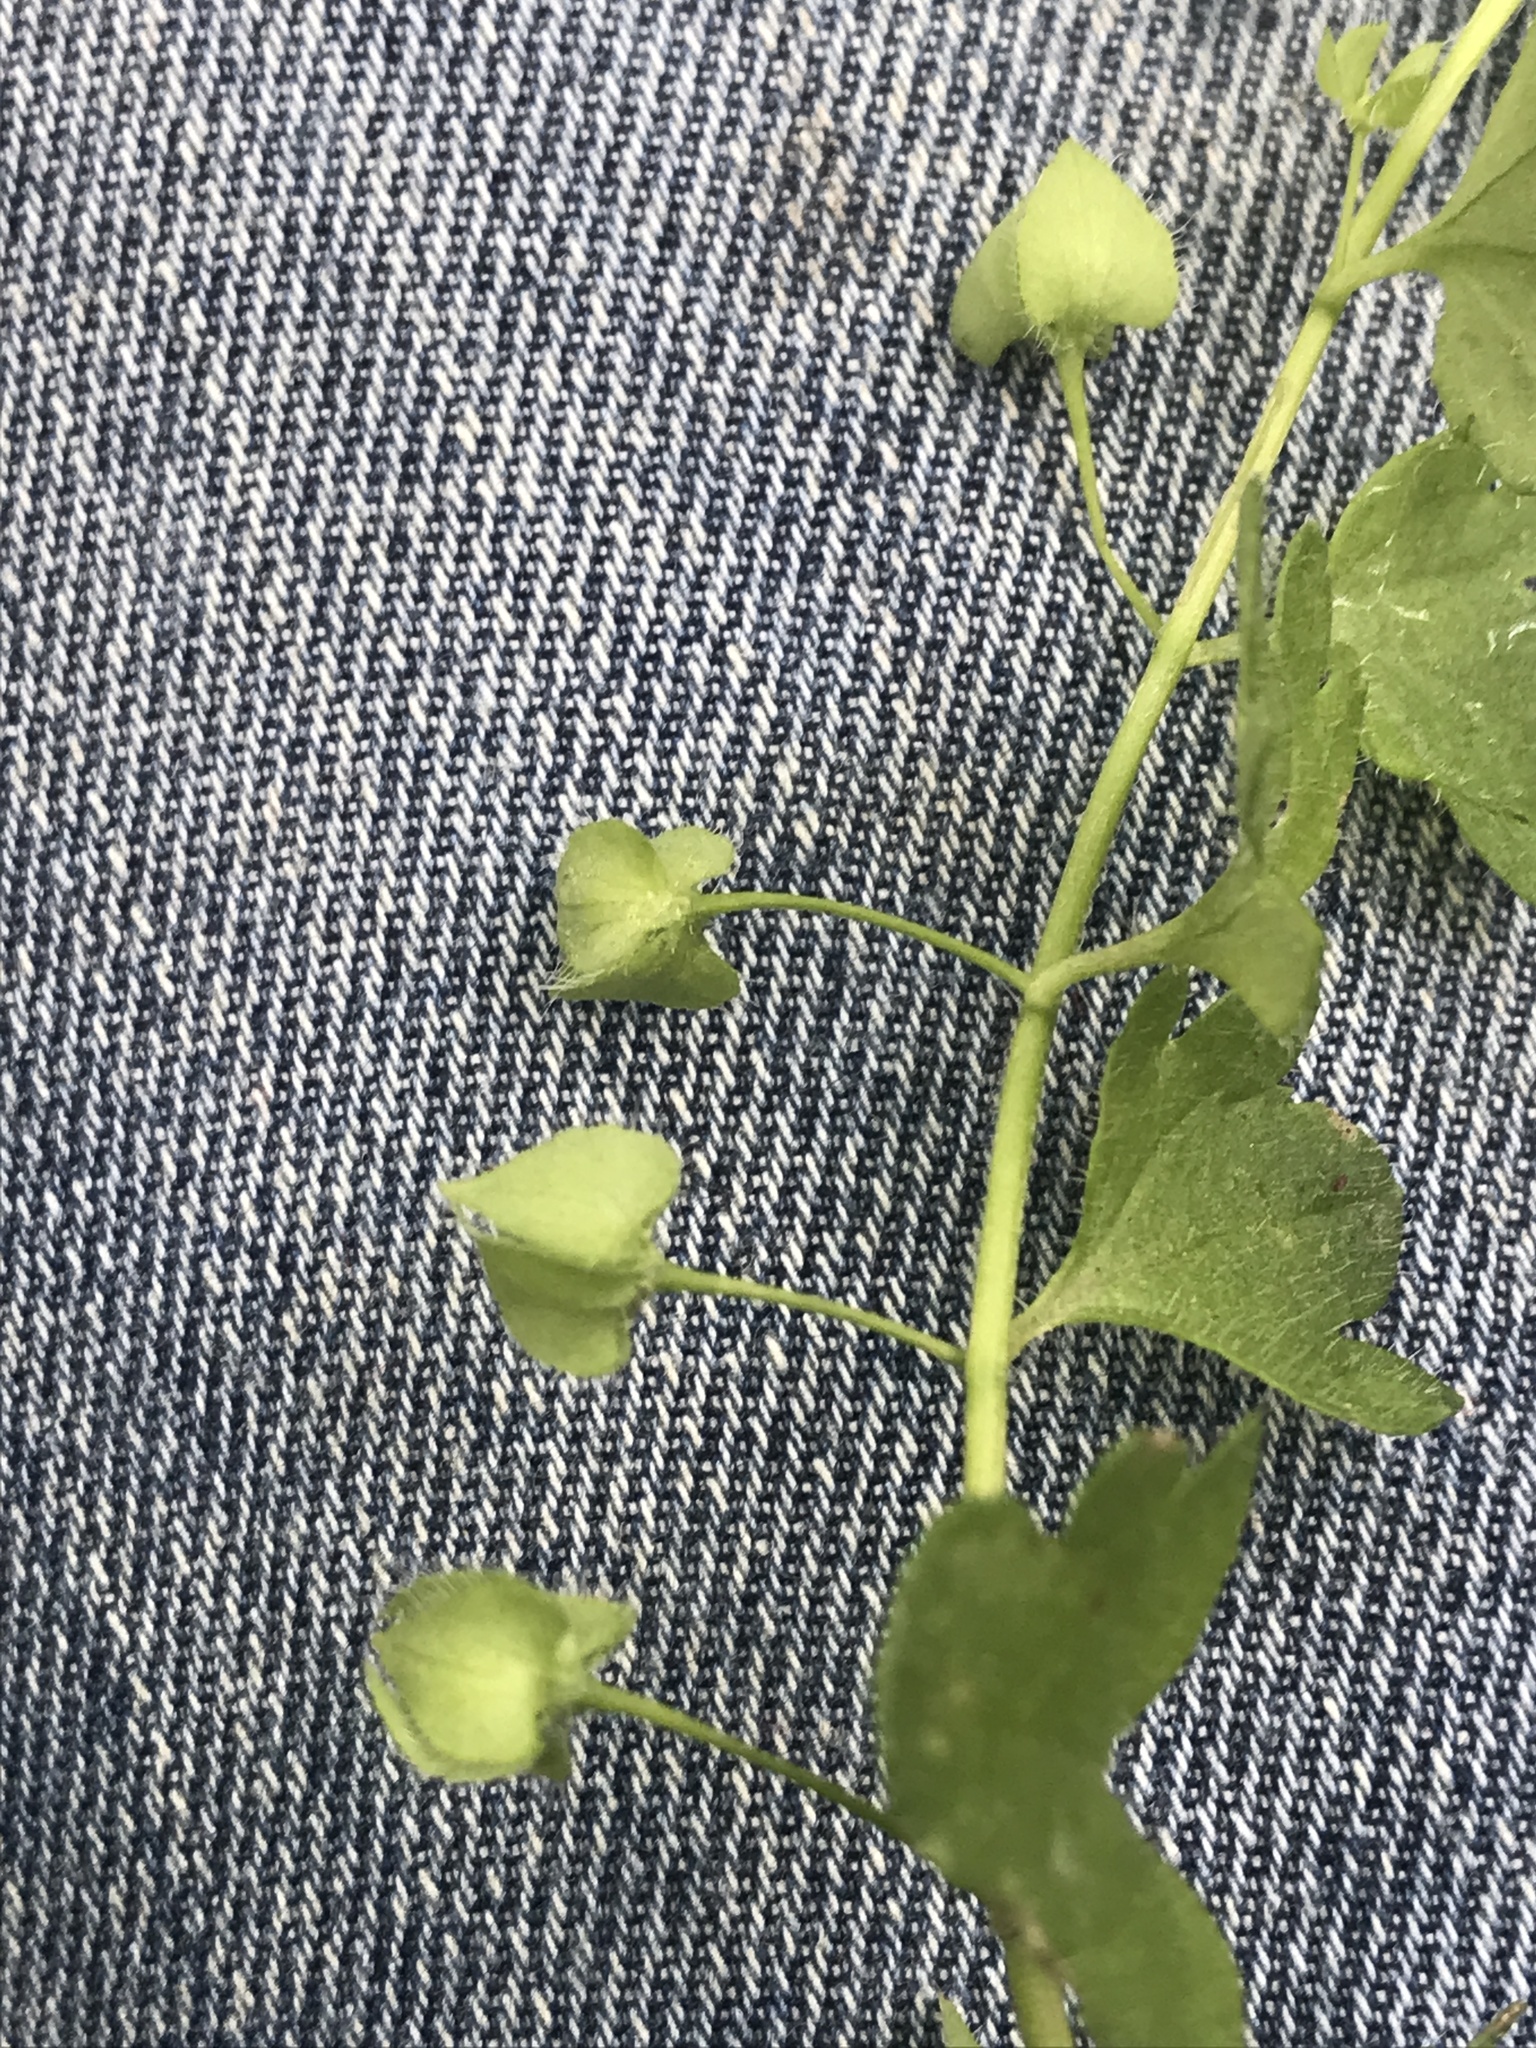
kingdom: Plantae
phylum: Tracheophyta
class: Magnoliopsida
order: Lamiales
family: Plantaginaceae
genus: Veronica
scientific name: Veronica hederifolia
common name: Ivy-leaved speedwell
